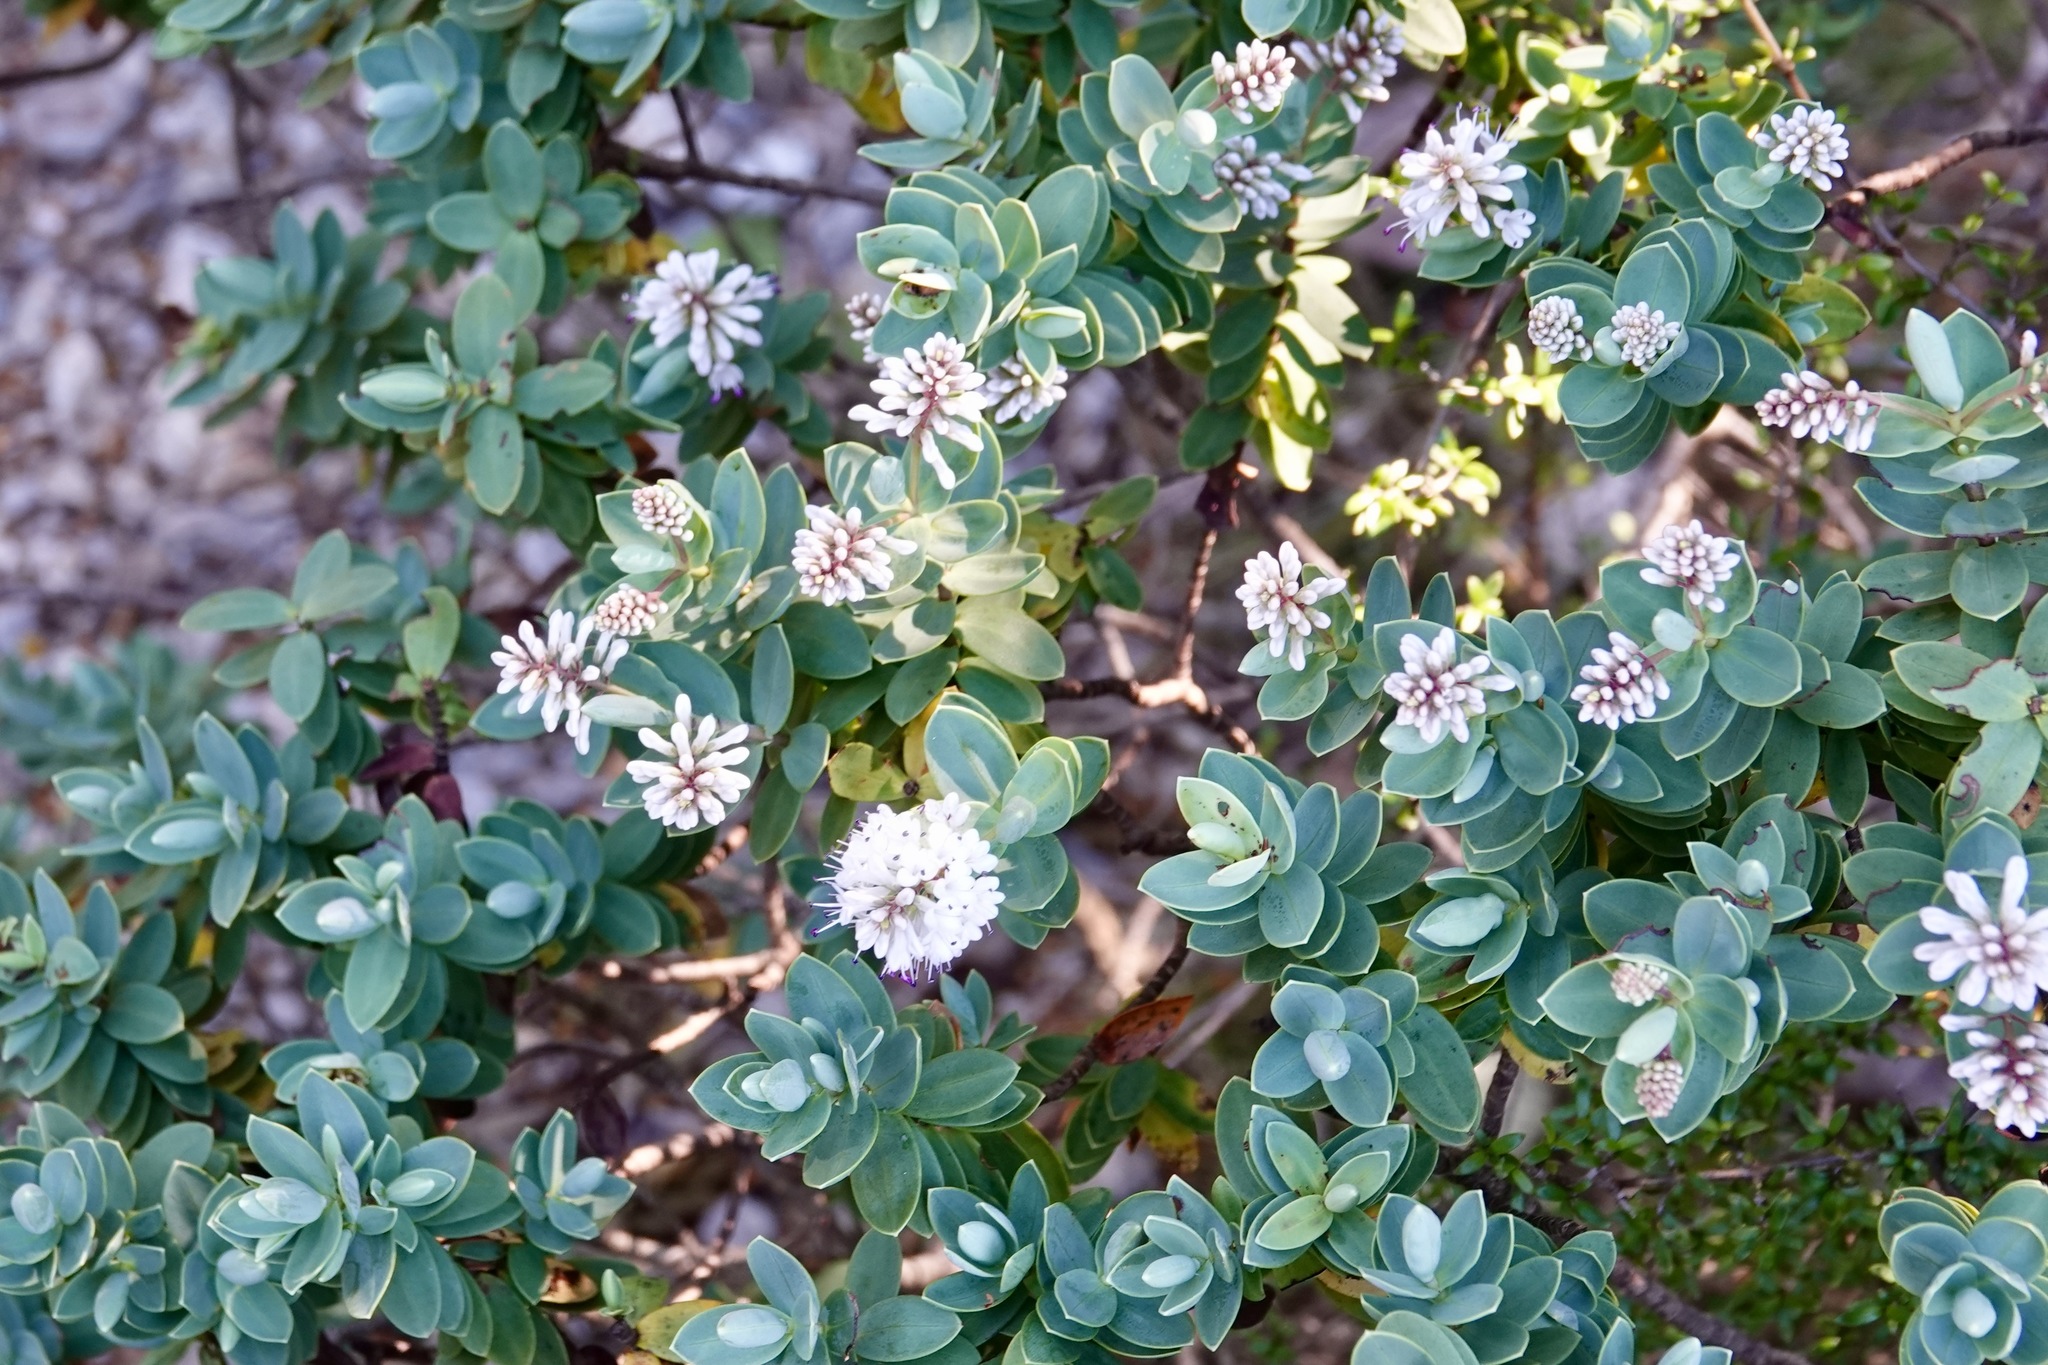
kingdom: Plantae
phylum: Tracheophyta
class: Magnoliopsida
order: Lamiales
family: Plantaginaceae
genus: Veronica
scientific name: Veronica albicans
